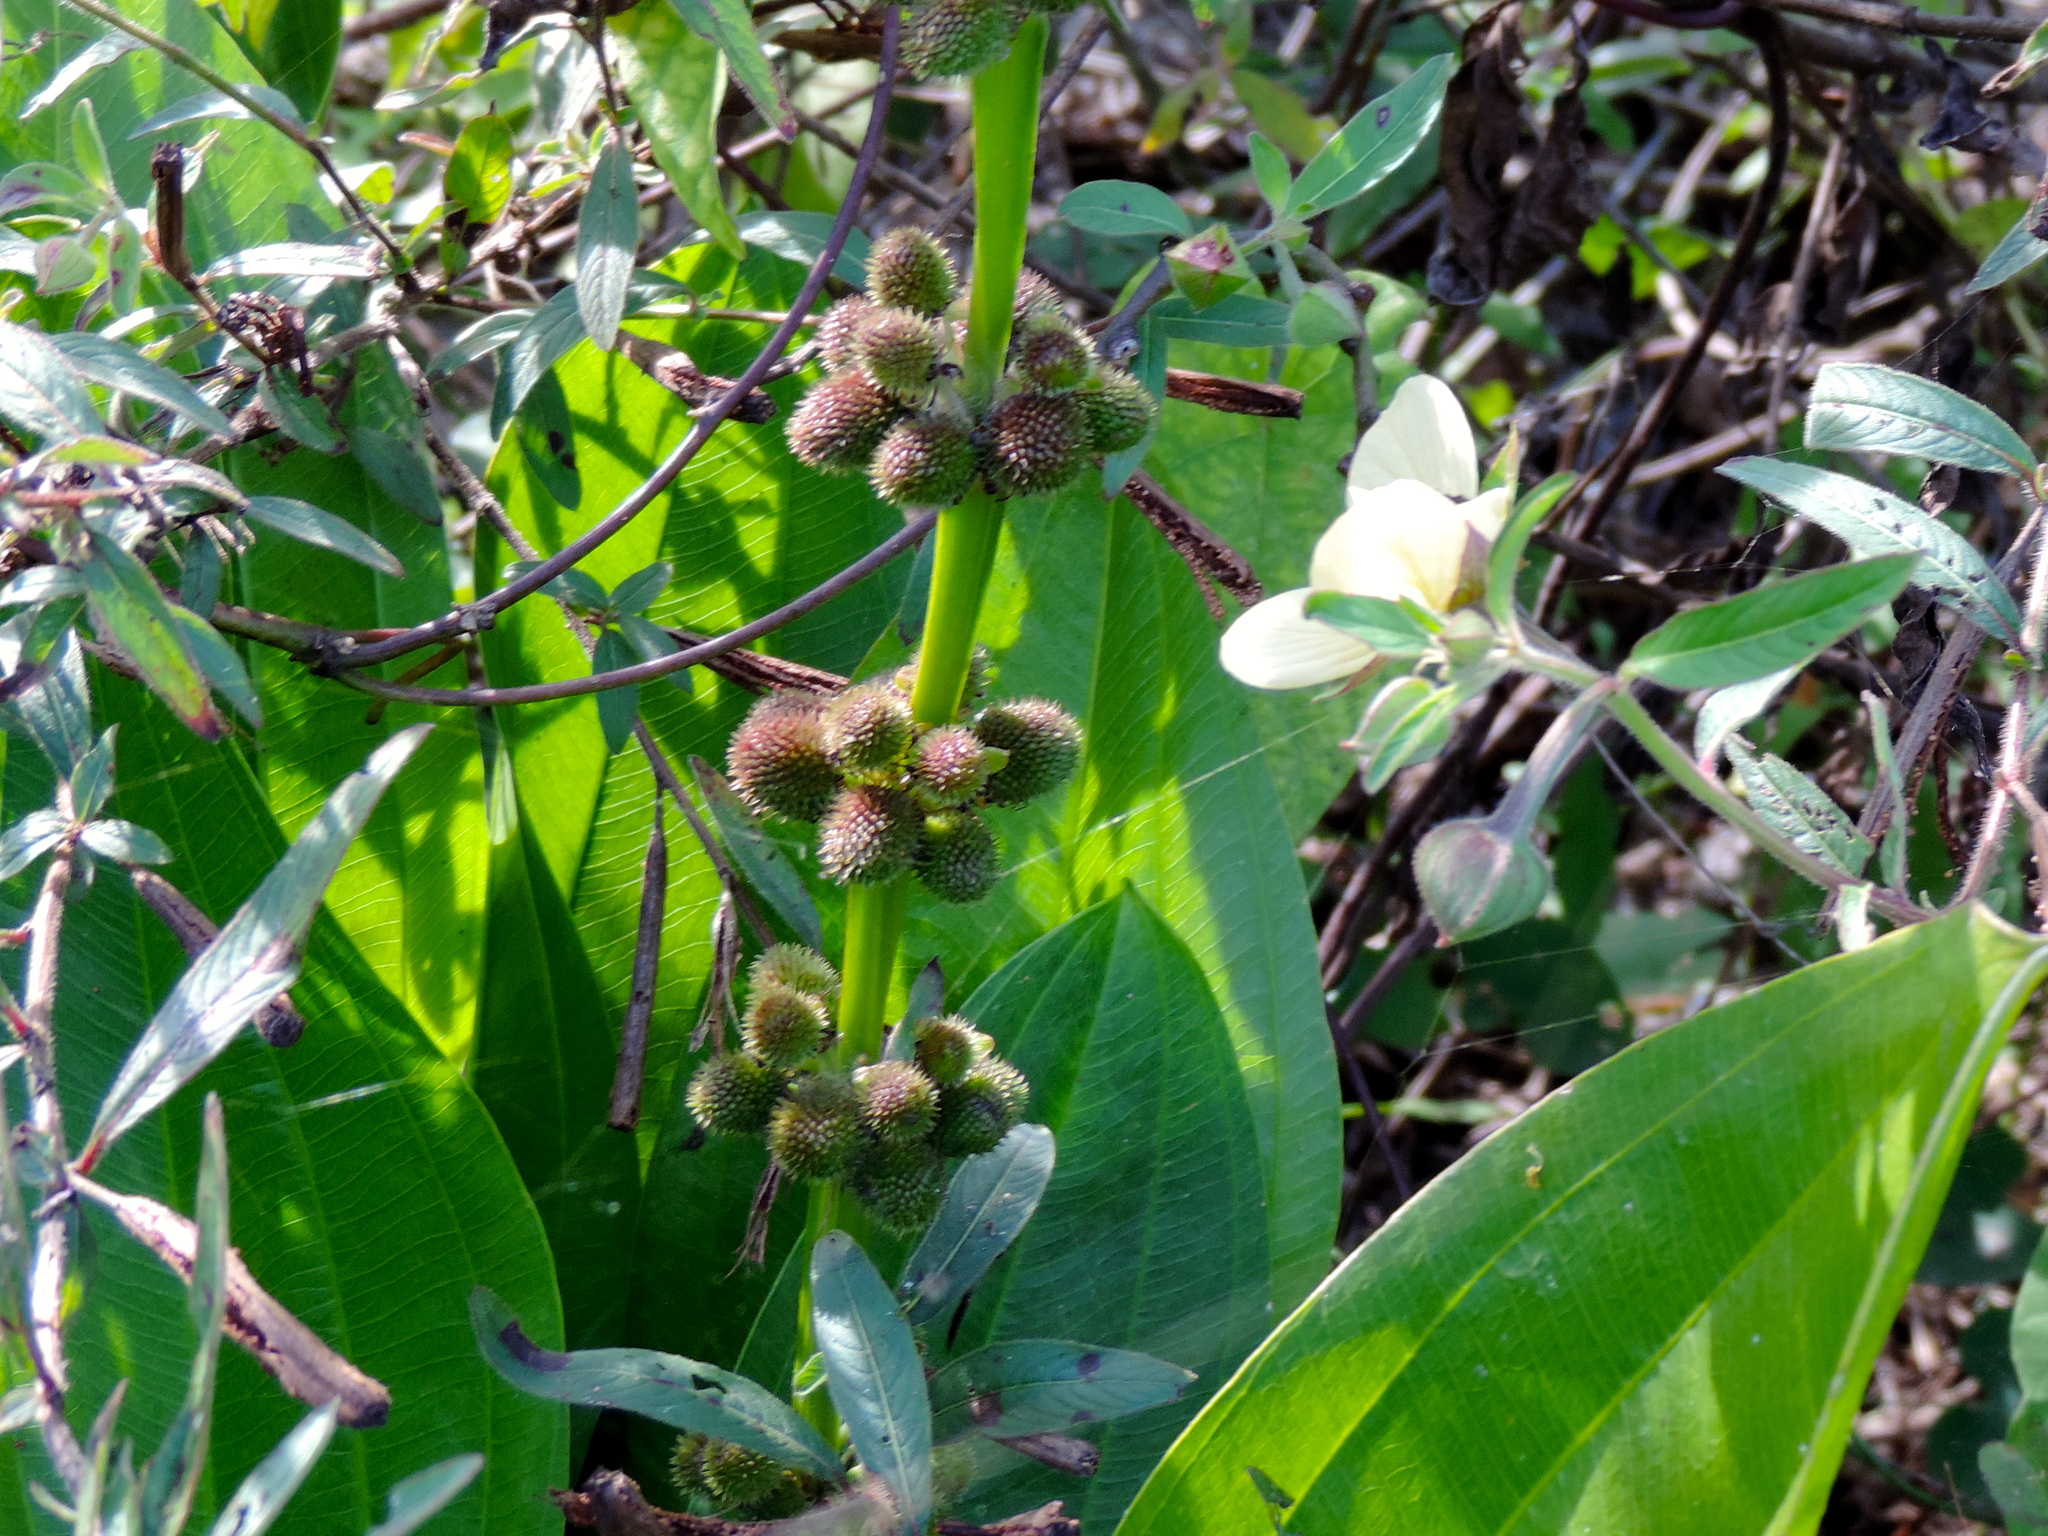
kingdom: Plantae
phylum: Tracheophyta
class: Liliopsida
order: Alismatales
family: Alismataceae
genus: Aquarius
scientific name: Aquarius subulatus
